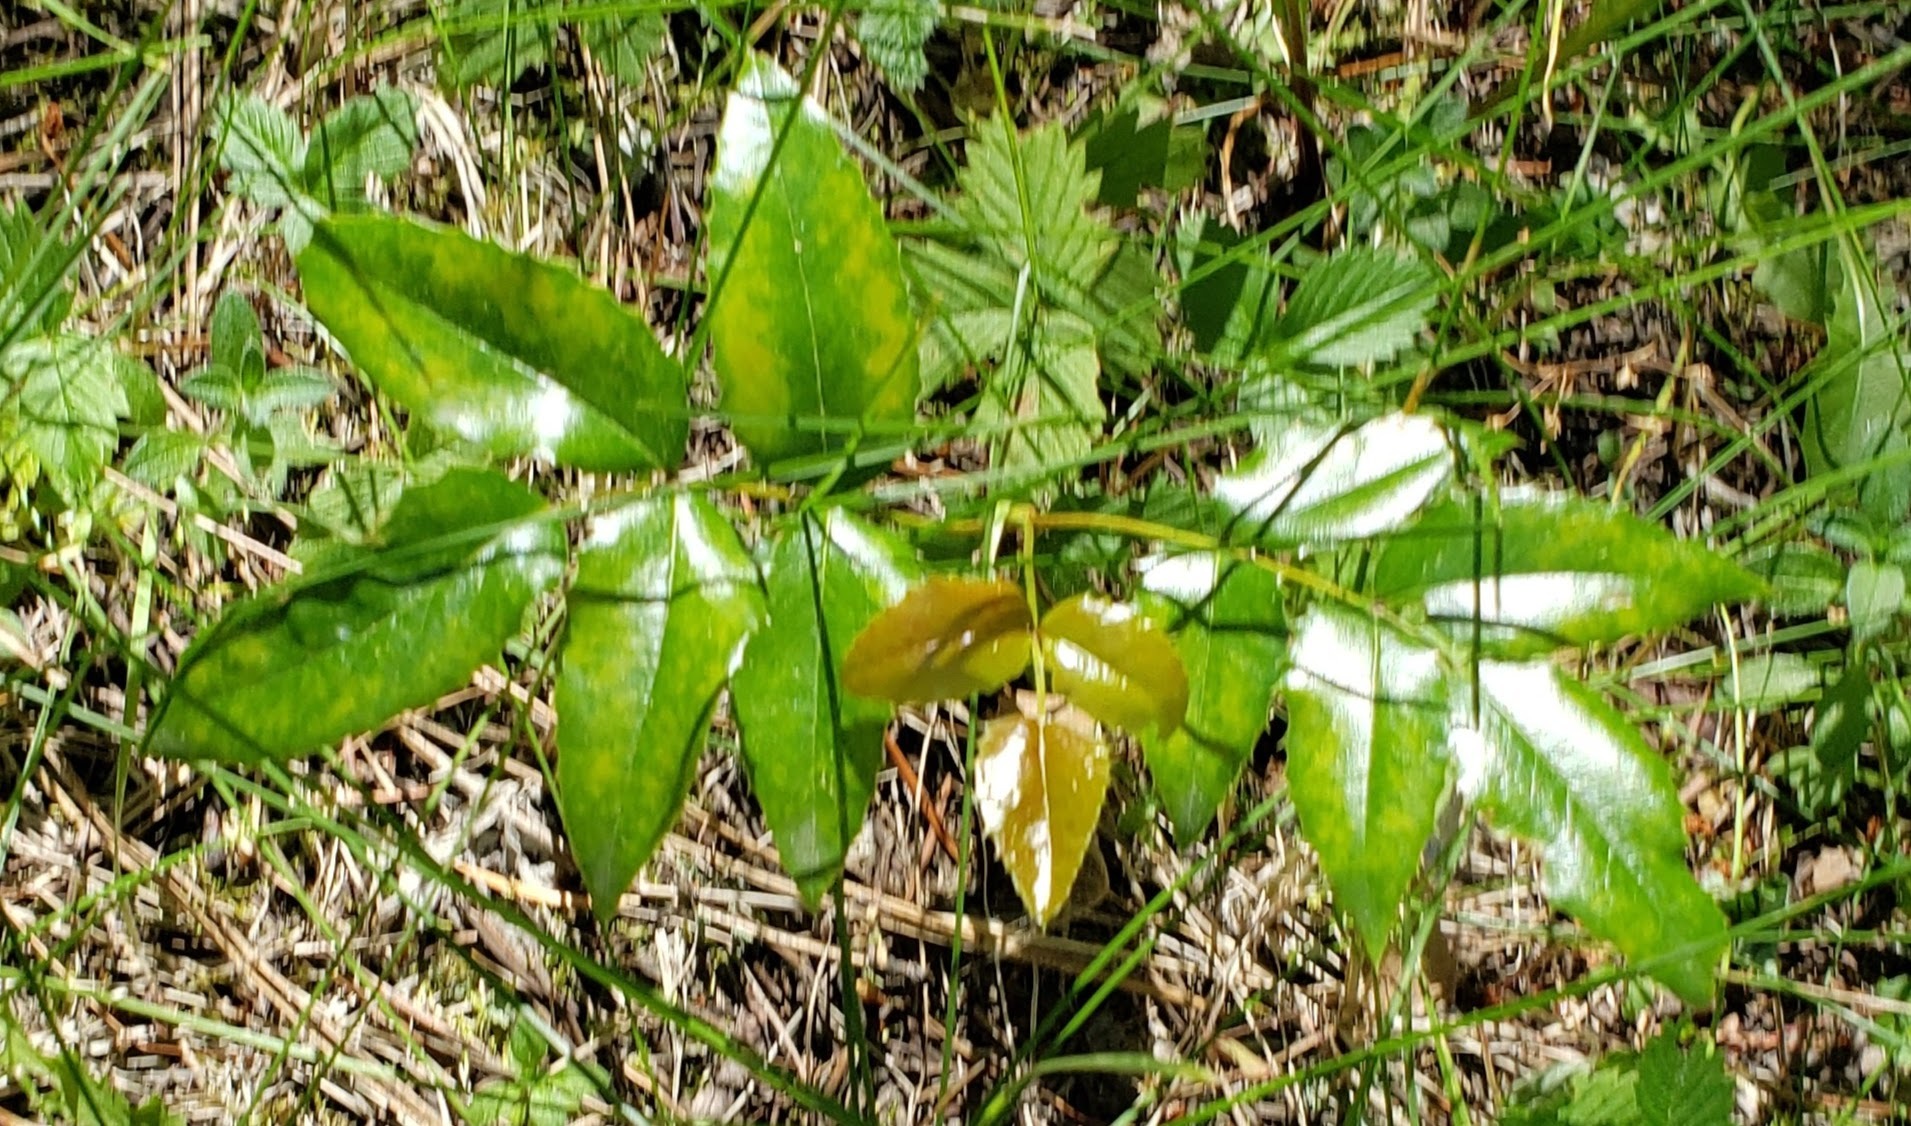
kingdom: Plantae
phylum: Tracheophyta
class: Magnoliopsida
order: Ranunculales
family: Berberidaceae
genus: Mahonia
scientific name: Mahonia aquifolium
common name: Oregon-grape
